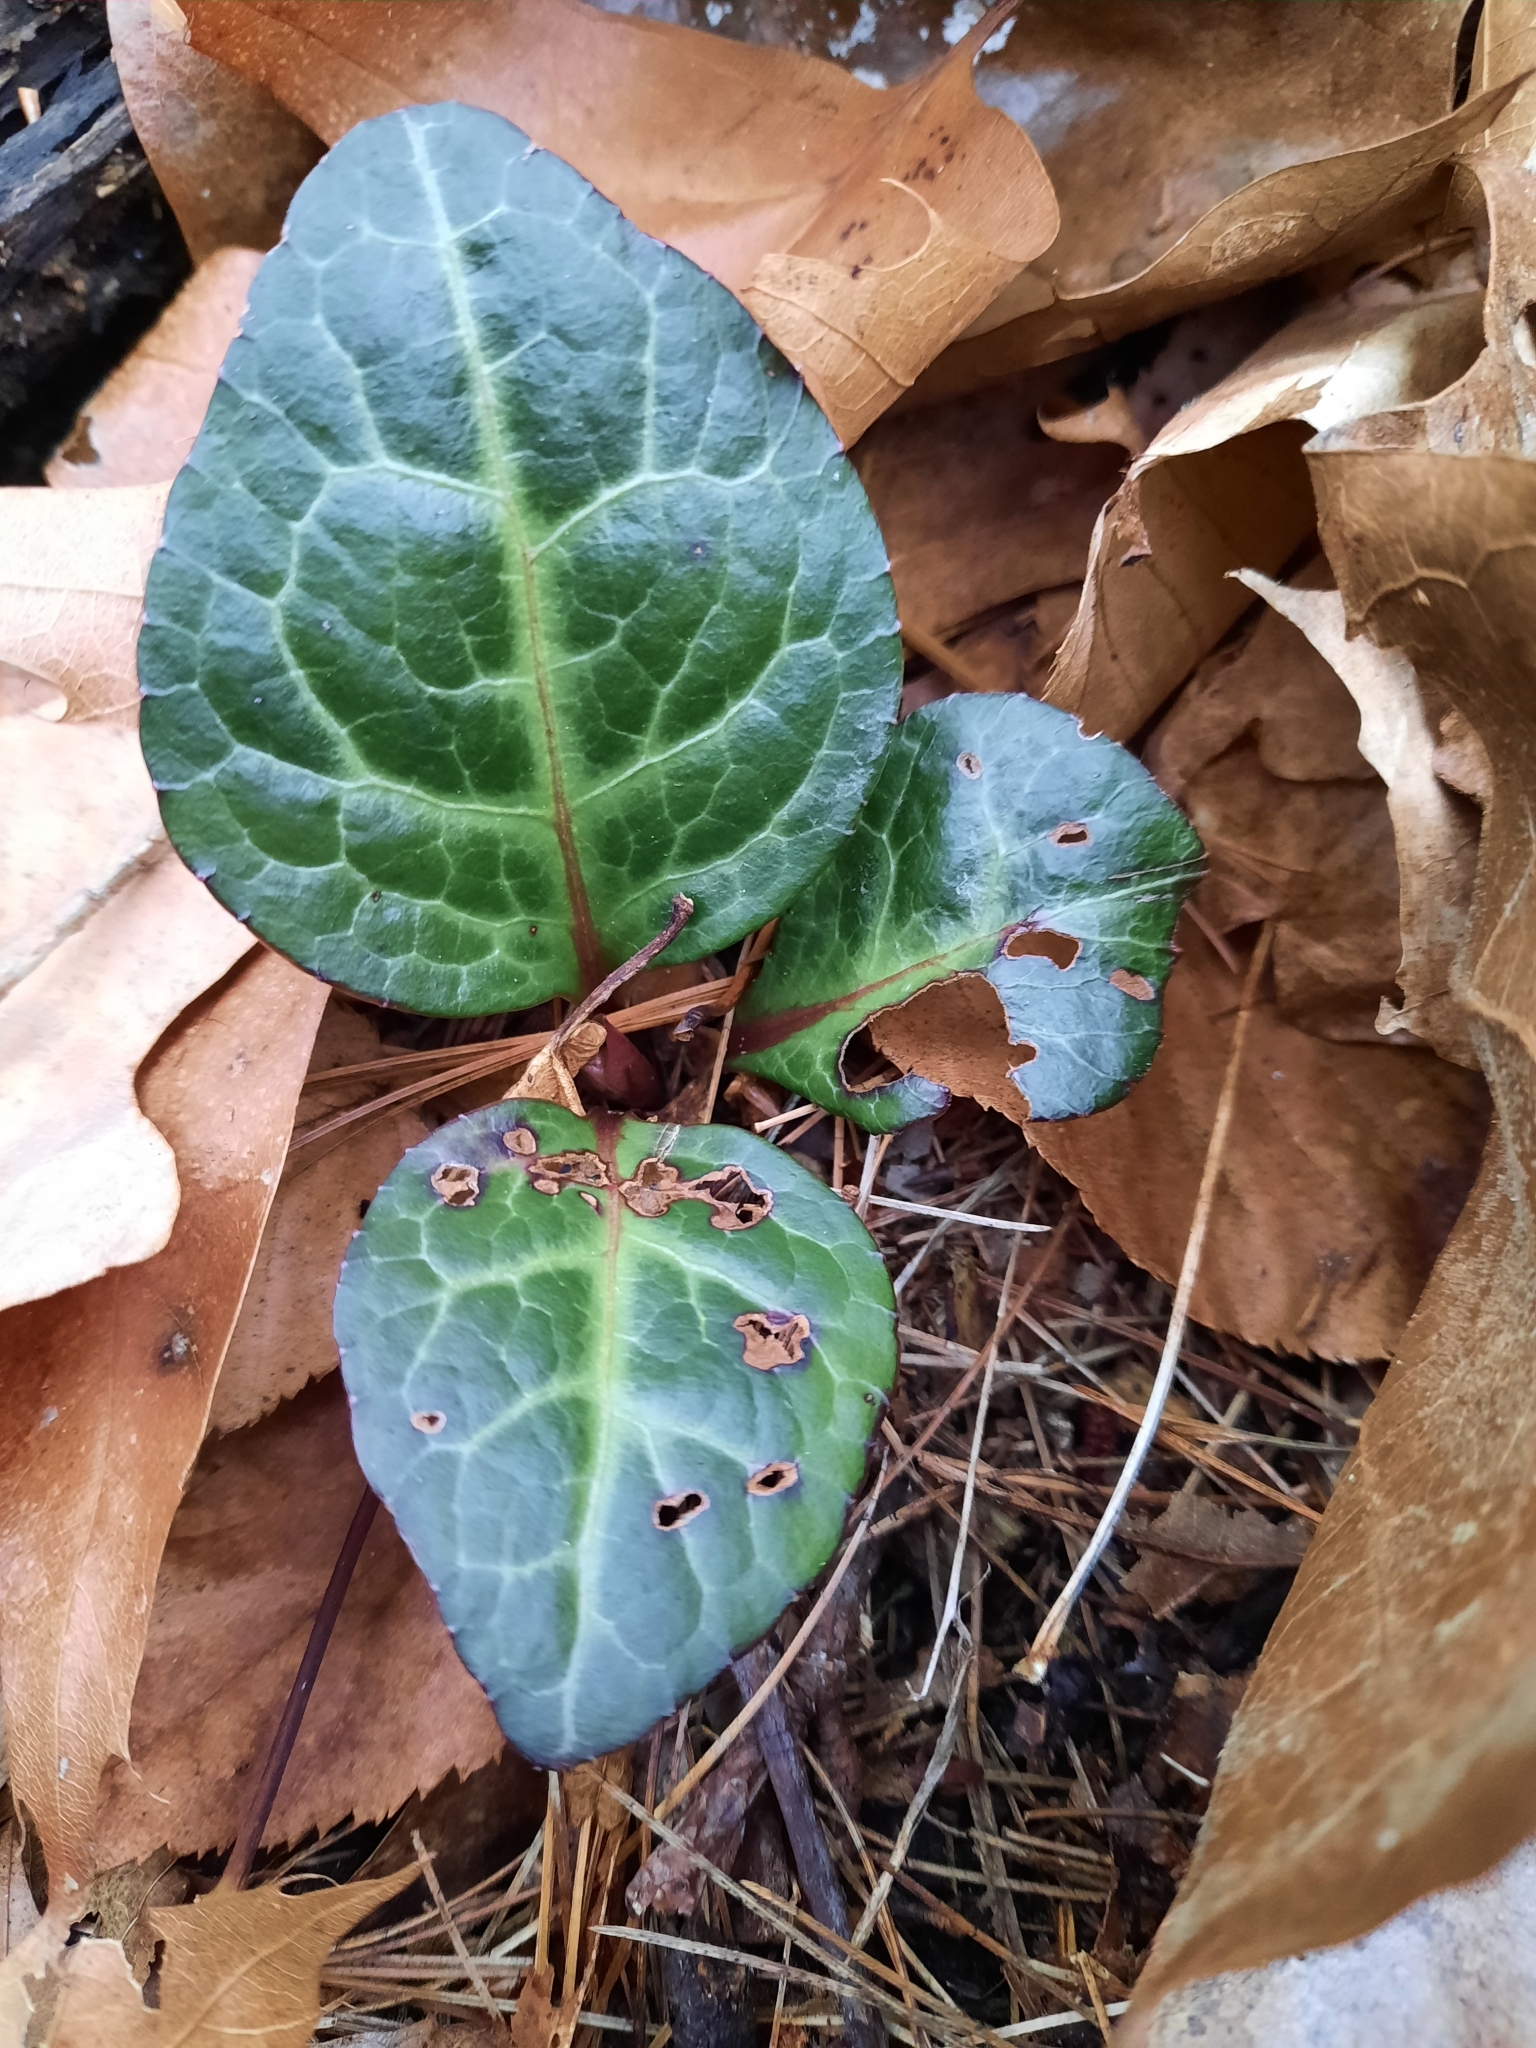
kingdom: Plantae
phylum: Tracheophyta
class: Magnoliopsida
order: Ericales
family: Ericaceae
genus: Pyrola
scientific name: Pyrola americana
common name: American wintergreen
